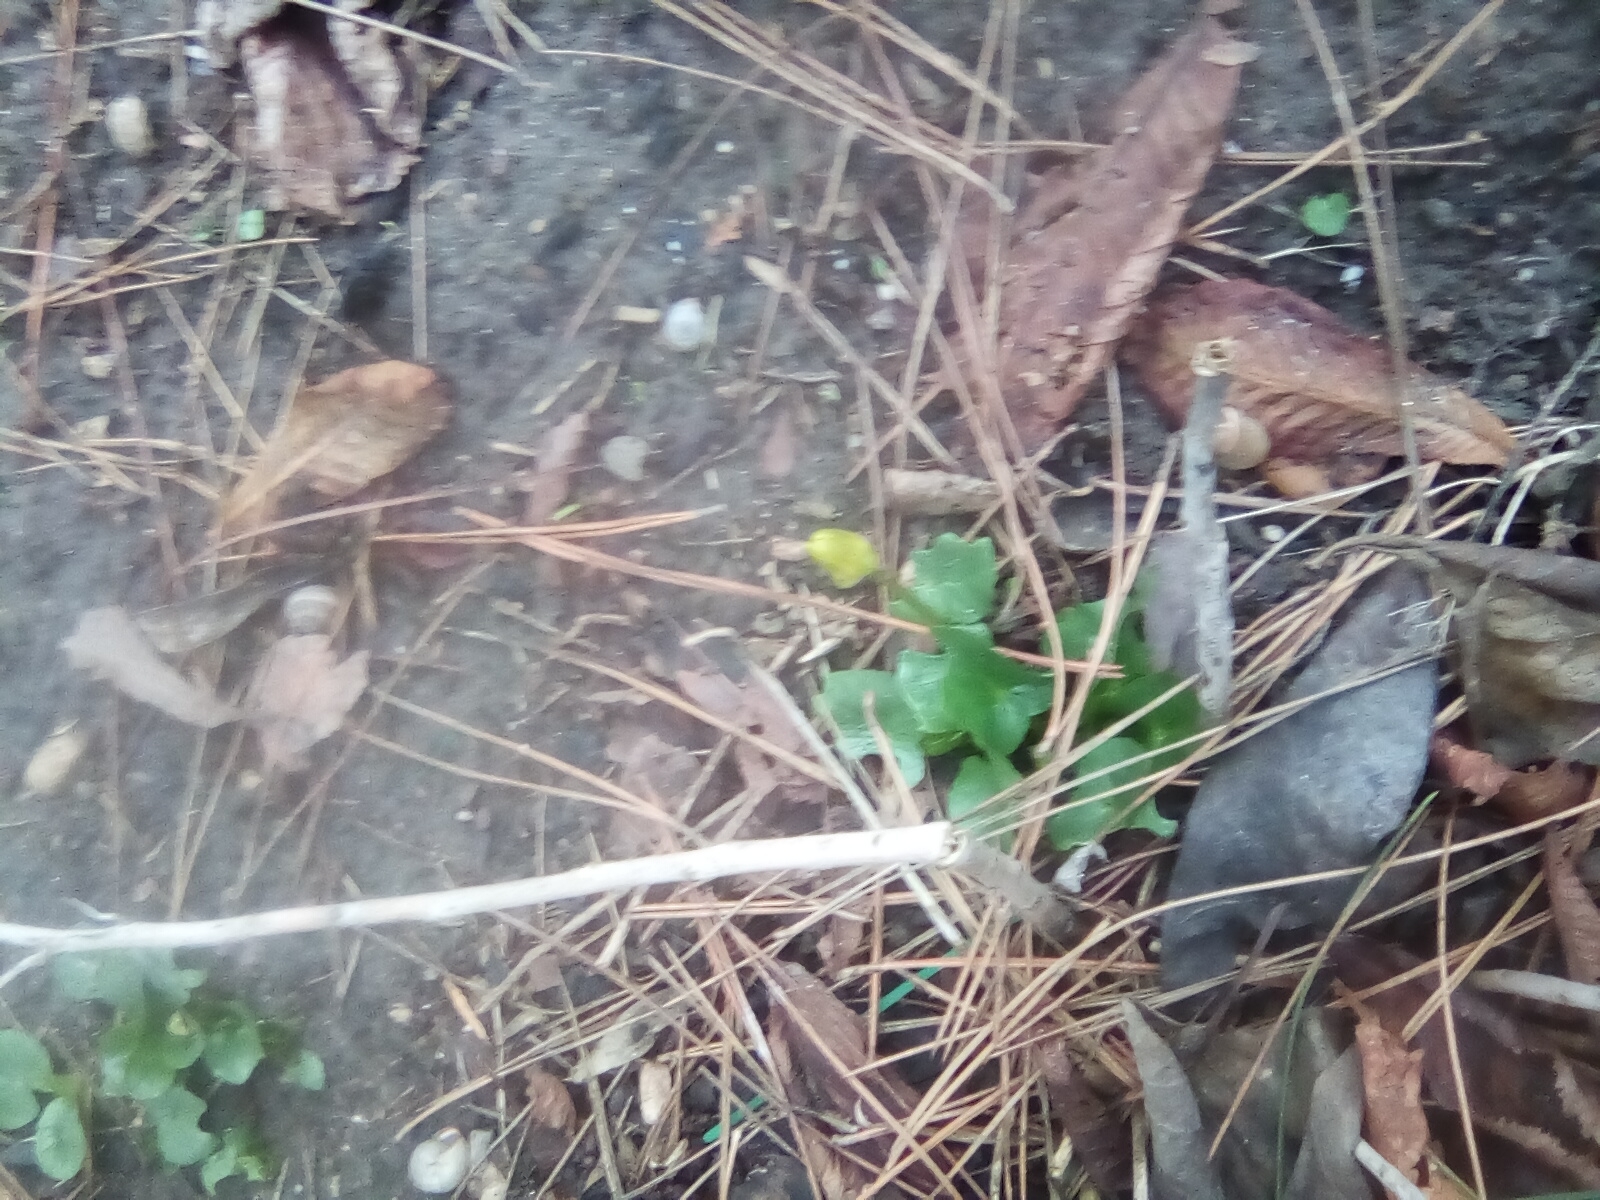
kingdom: Plantae
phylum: Tracheophyta
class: Magnoliopsida
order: Ranunculales
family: Ranunculaceae
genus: Ficaria
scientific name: Ficaria verna
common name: Lesser celandine
